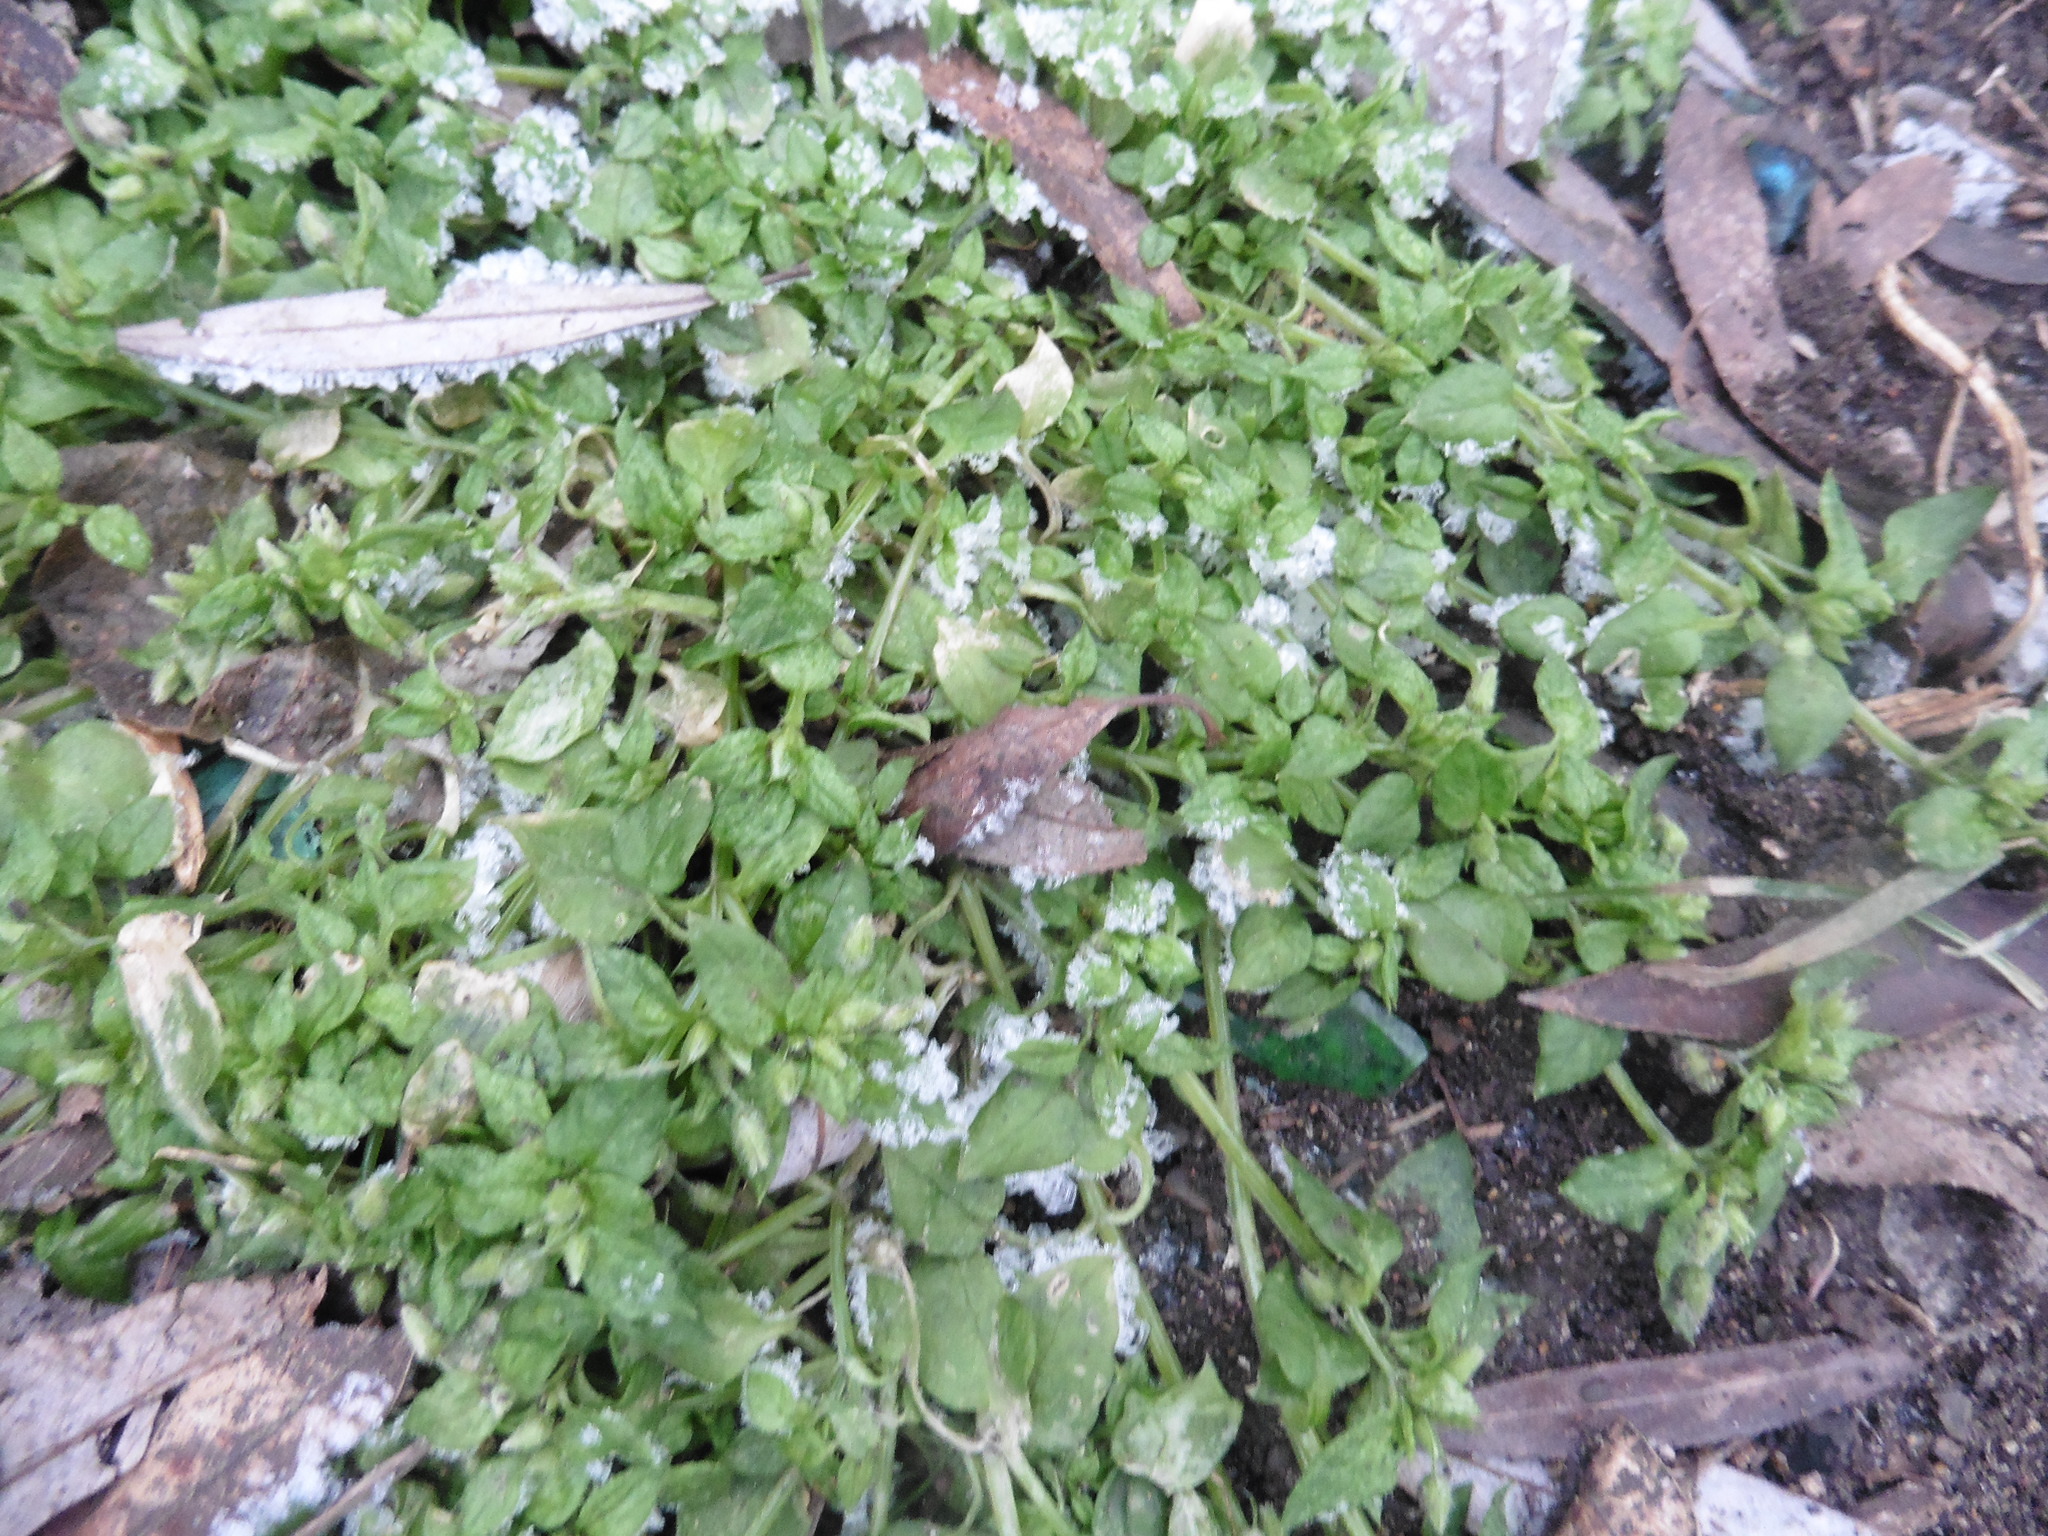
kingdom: Plantae
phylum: Tracheophyta
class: Magnoliopsida
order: Caryophyllales
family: Caryophyllaceae
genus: Stellaria
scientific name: Stellaria media
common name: Common chickweed
